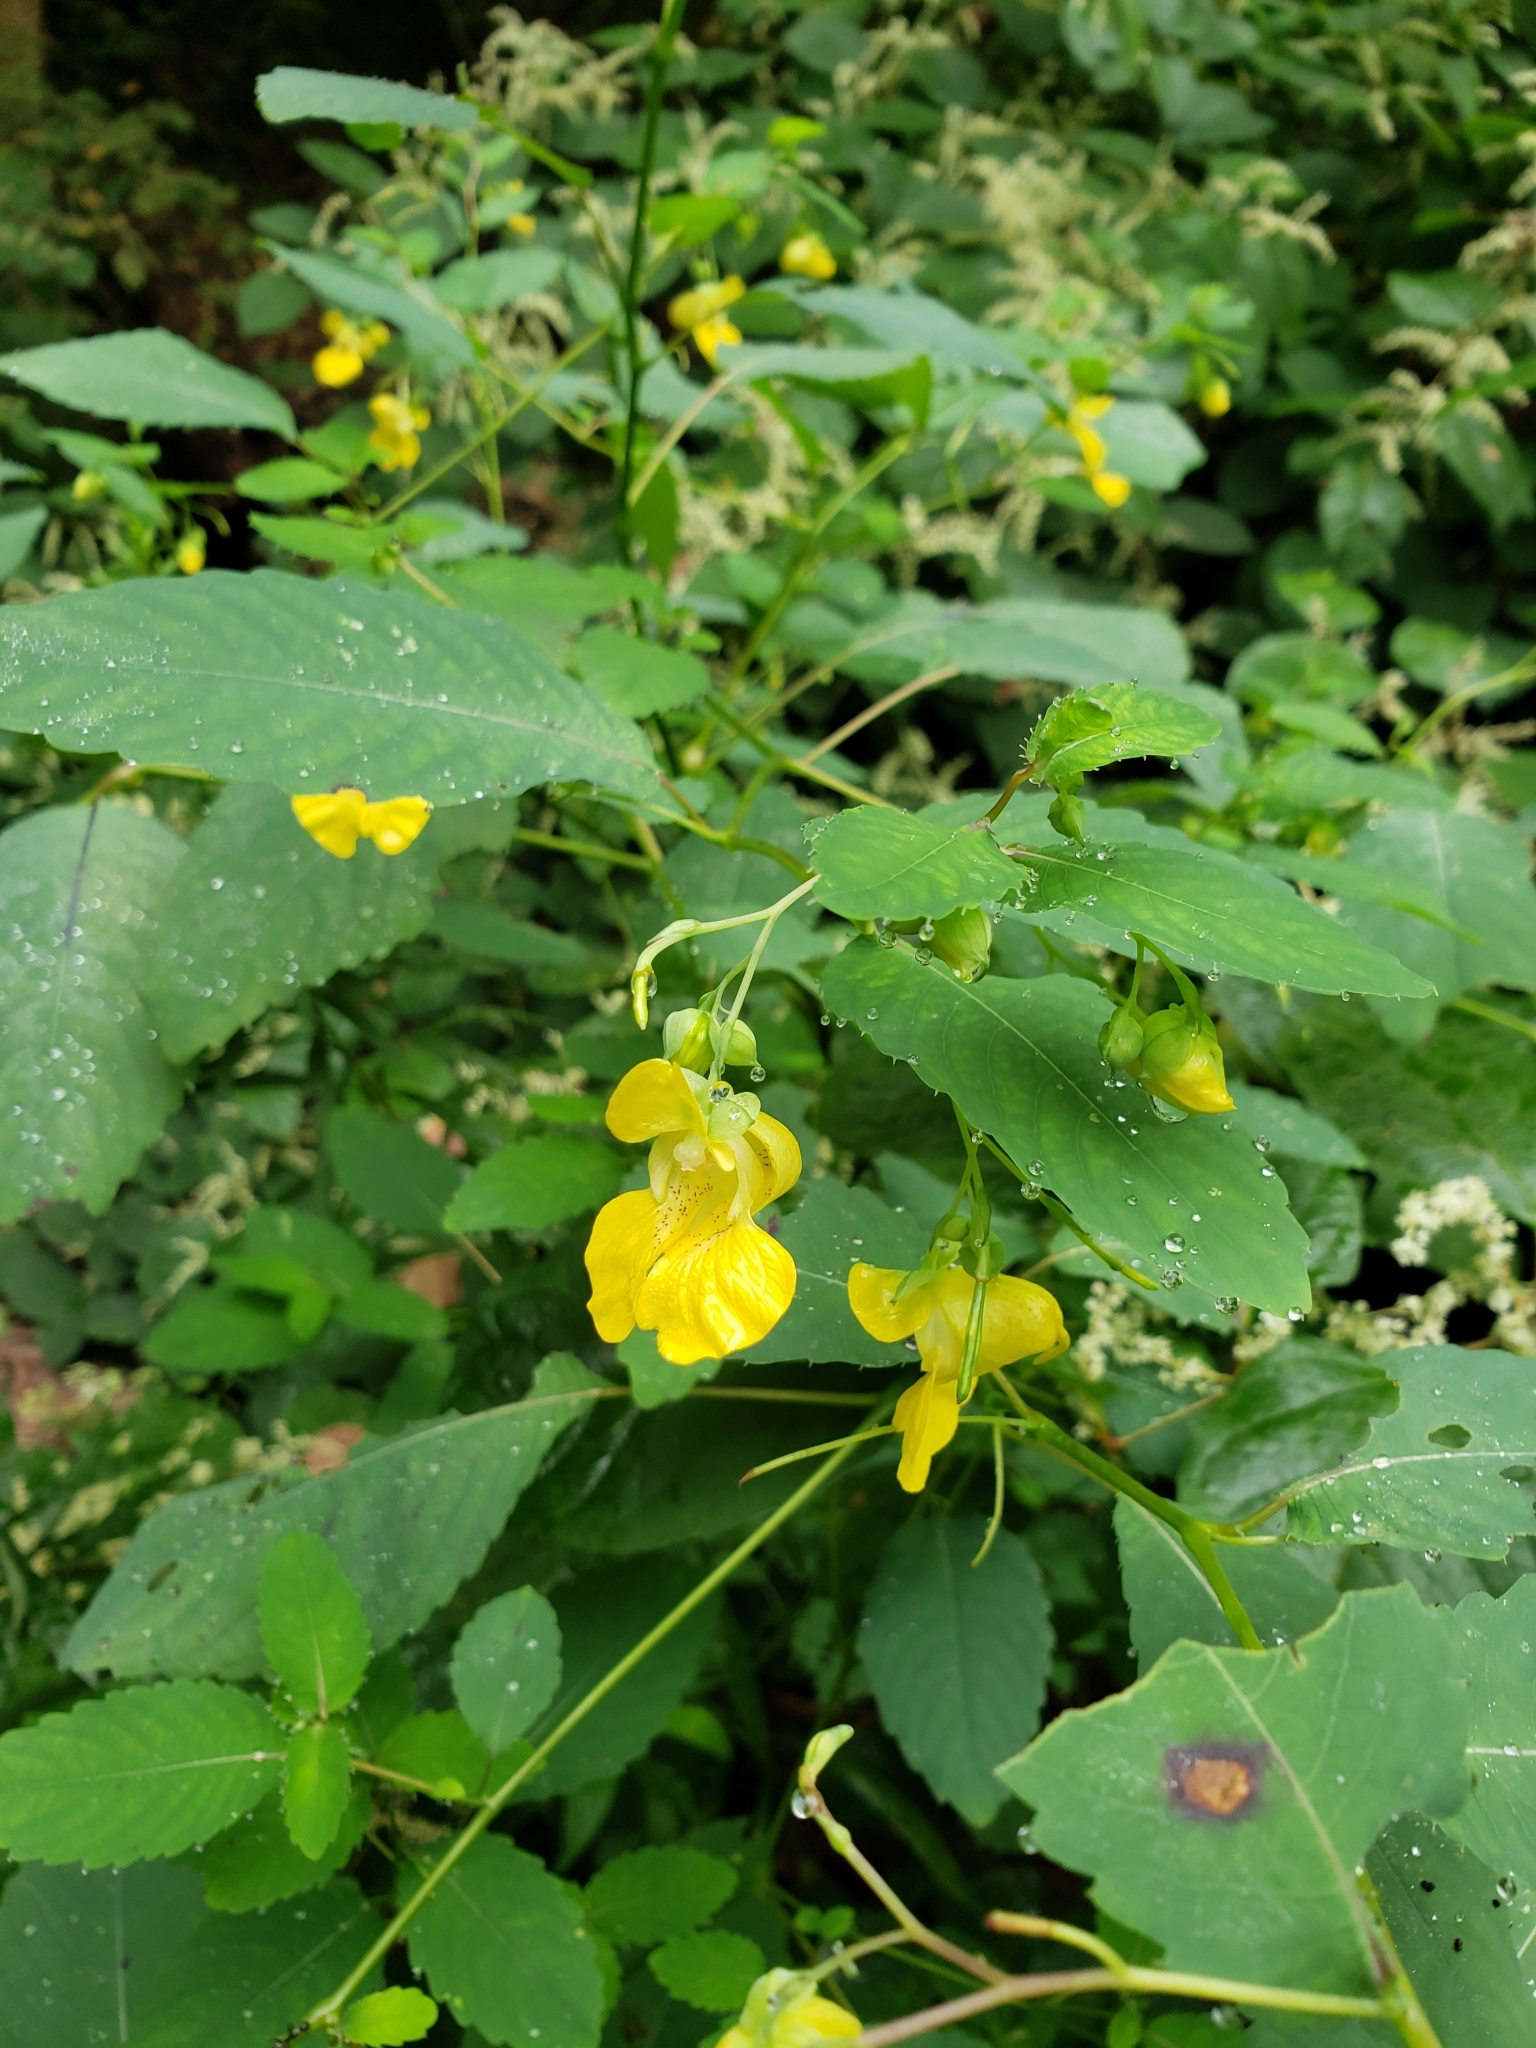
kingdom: Plantae
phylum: Tracheophyta
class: Magnoliopsida
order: Ericales
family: Balsaminaceae
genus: Impatiens
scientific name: Impatiens pallida
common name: Pale snapweed
